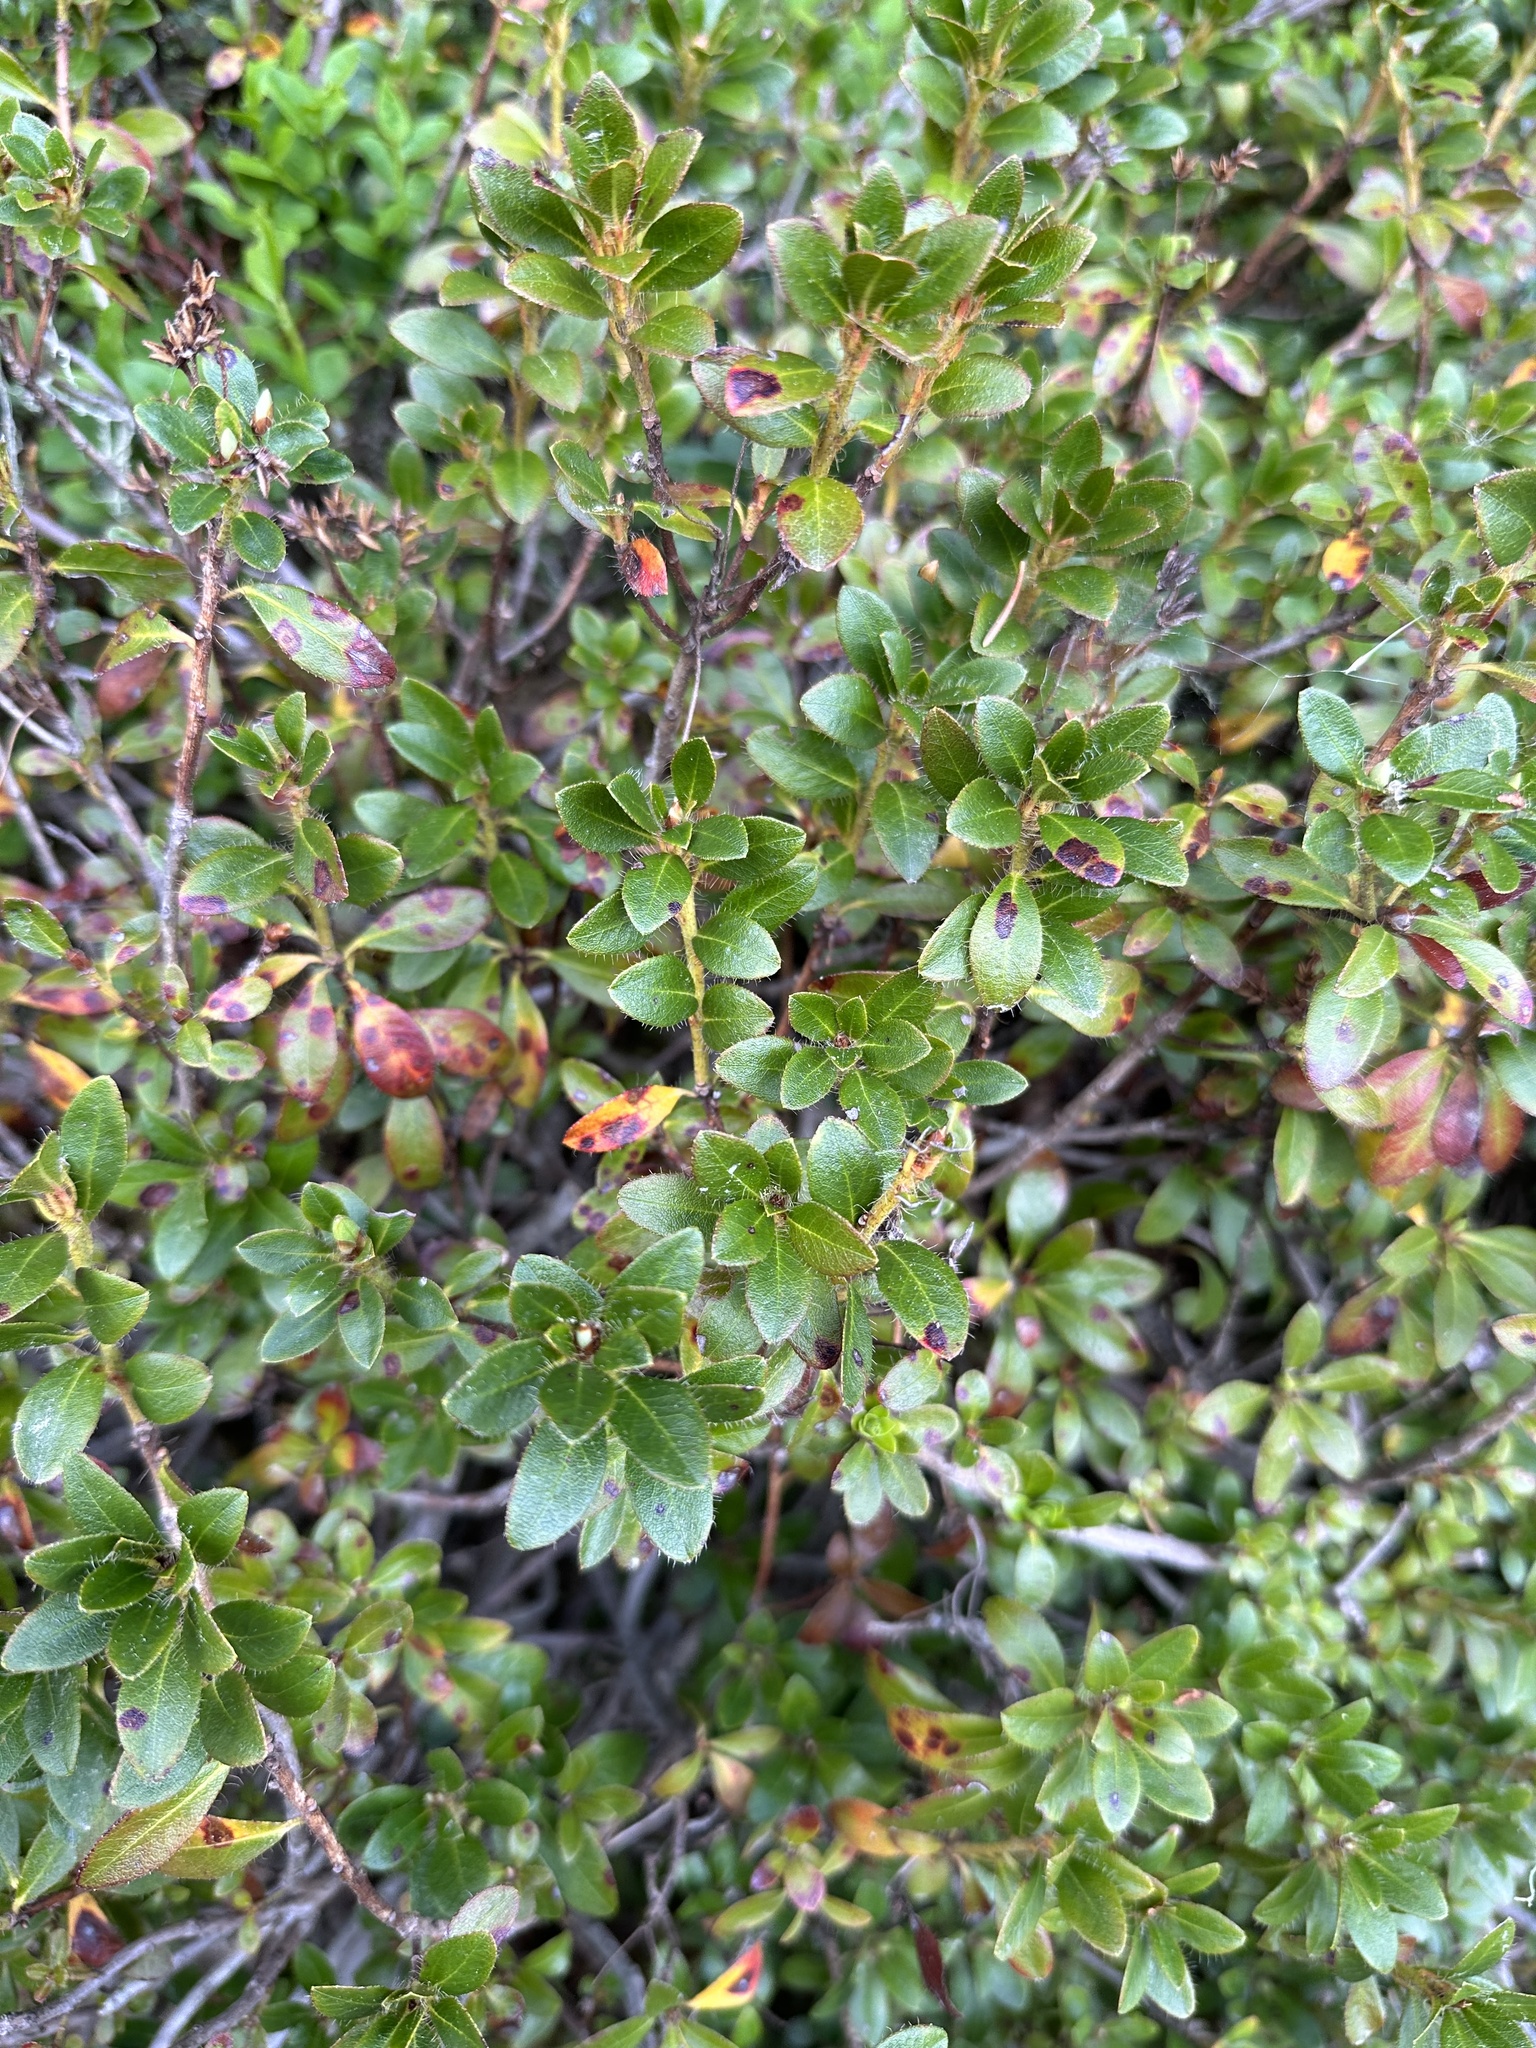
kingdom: Plantae
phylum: Tracheophyta
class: Magnoliopsida
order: Ericales
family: Ericaceae
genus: Rhododendron
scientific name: Rhododendron hirsutum
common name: Hairy alpenrose
